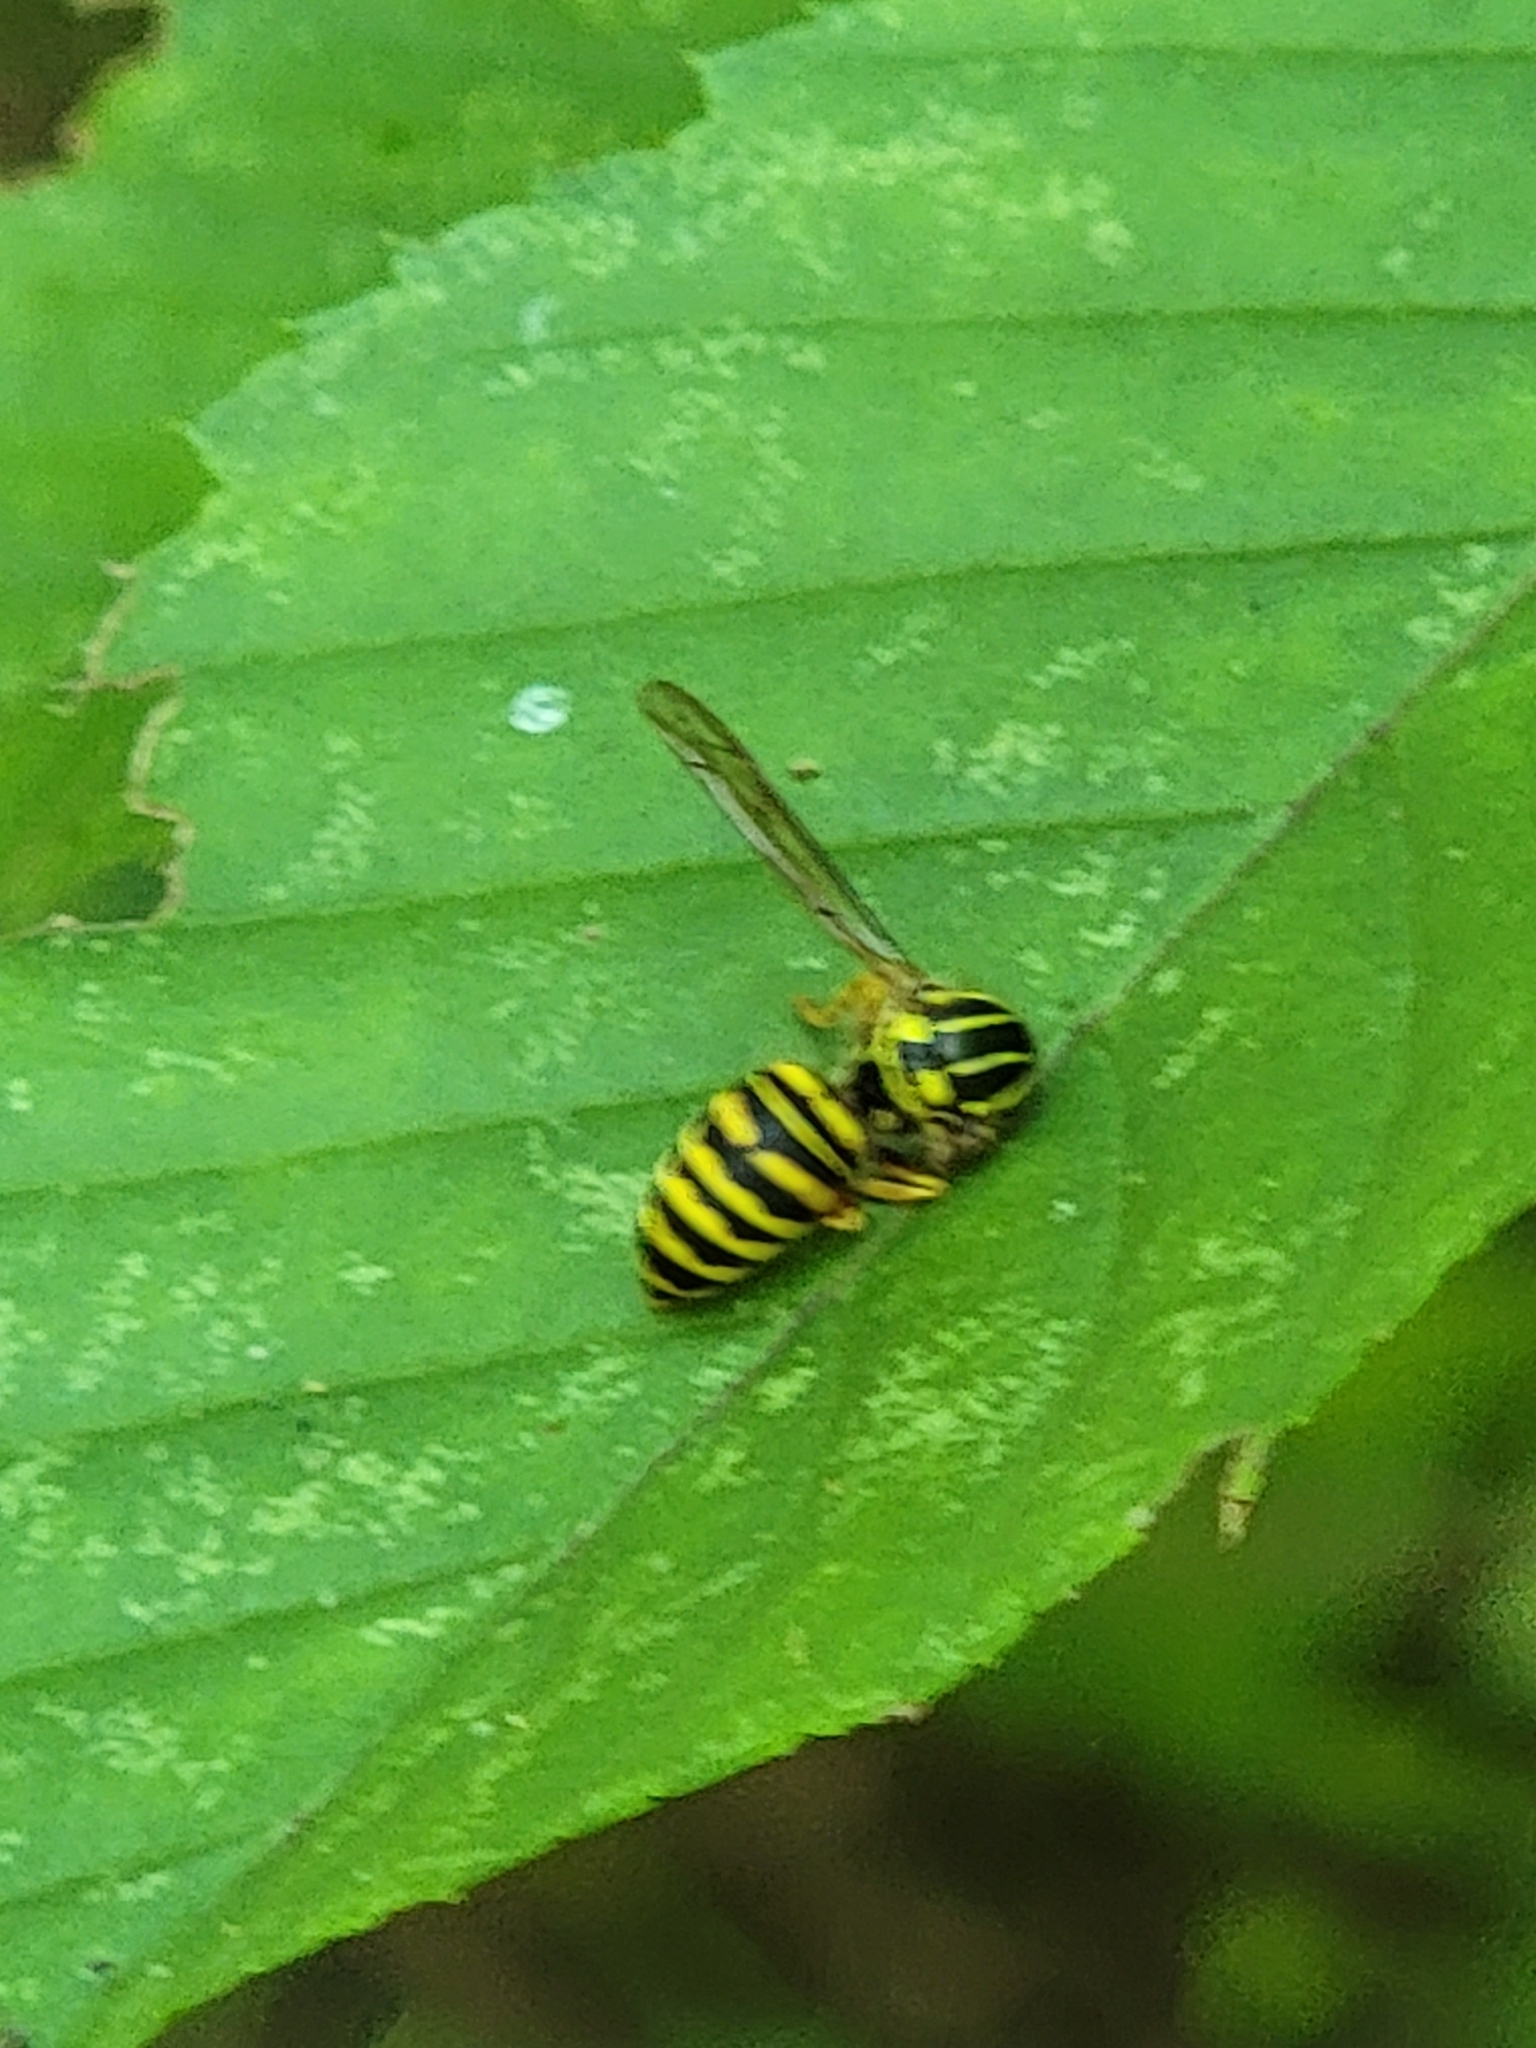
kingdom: Animalia
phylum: Arthropoda
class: Insecta
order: Hymenoptera
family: Vespidae
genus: Vespula
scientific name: Vespula squamosa
